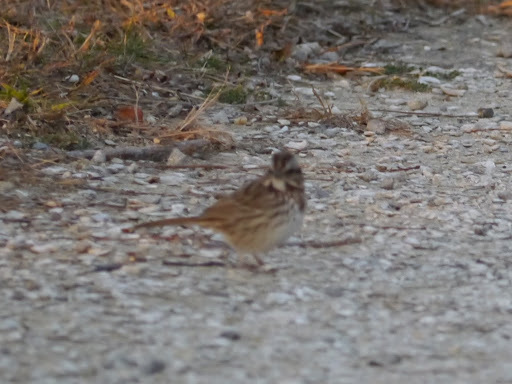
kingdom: Animalia
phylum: Chordata
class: Aves
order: Passeriformes
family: Passerellidae
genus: Melospiza
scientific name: Melospiza melodia
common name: Song sparrow
